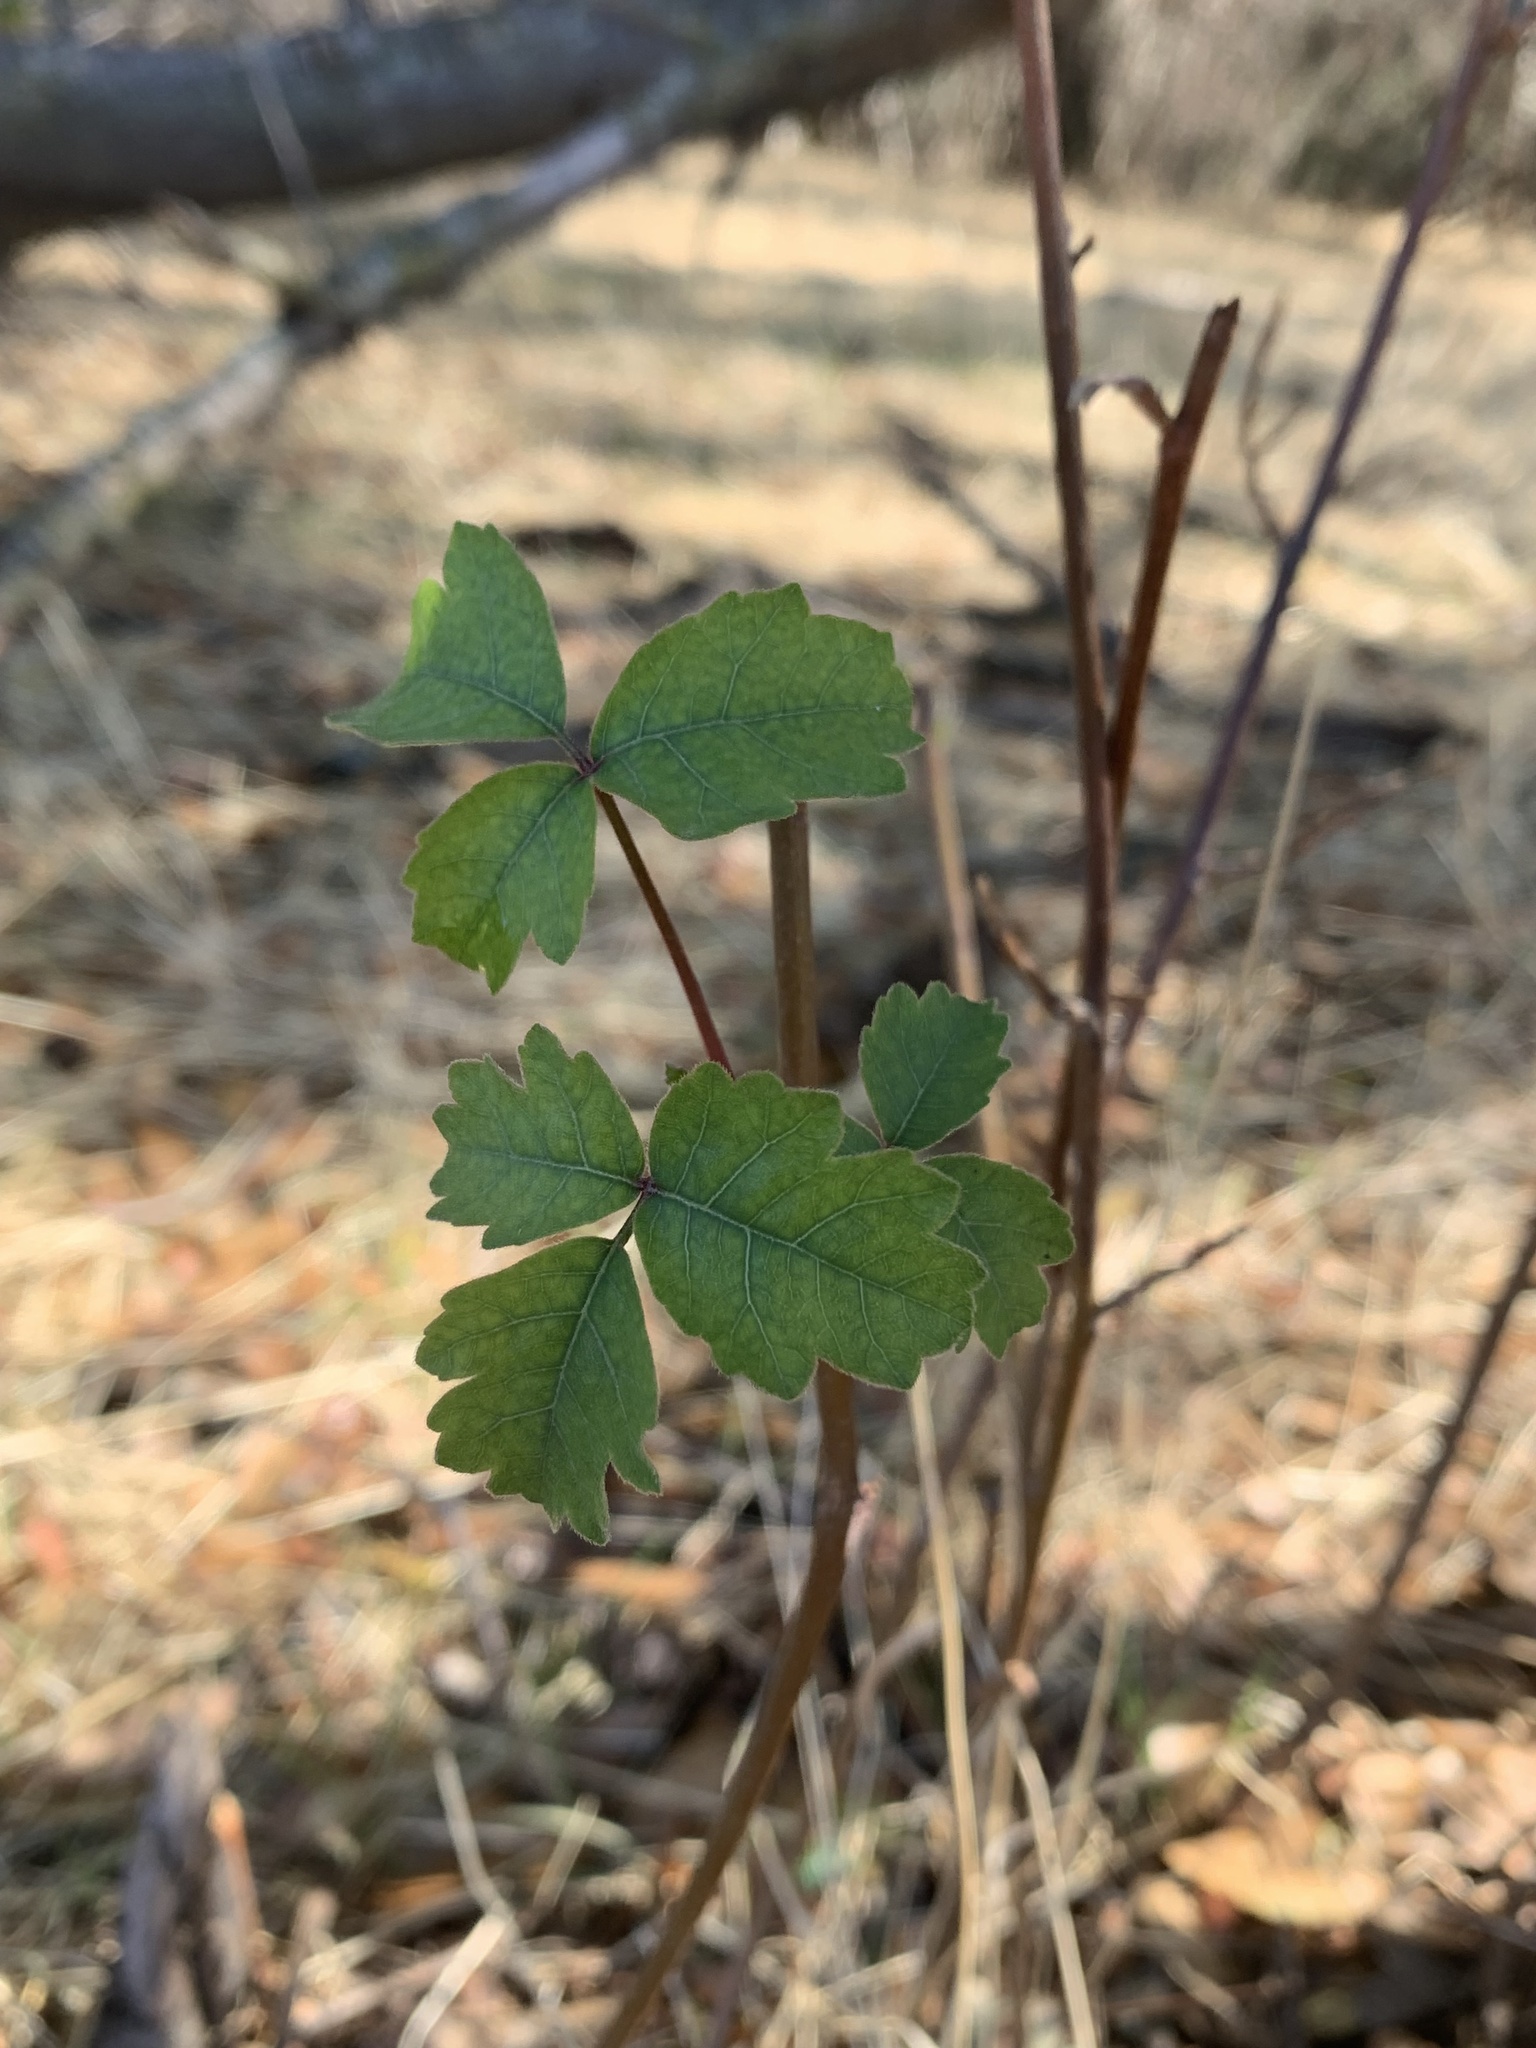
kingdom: Plantae
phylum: Tracheophyta
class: Magnoliopsida
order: Sapindales
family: Anacardiaceae
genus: Toxicodendron
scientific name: Toxicodendron diversilobum
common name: Pacific poison-oak
